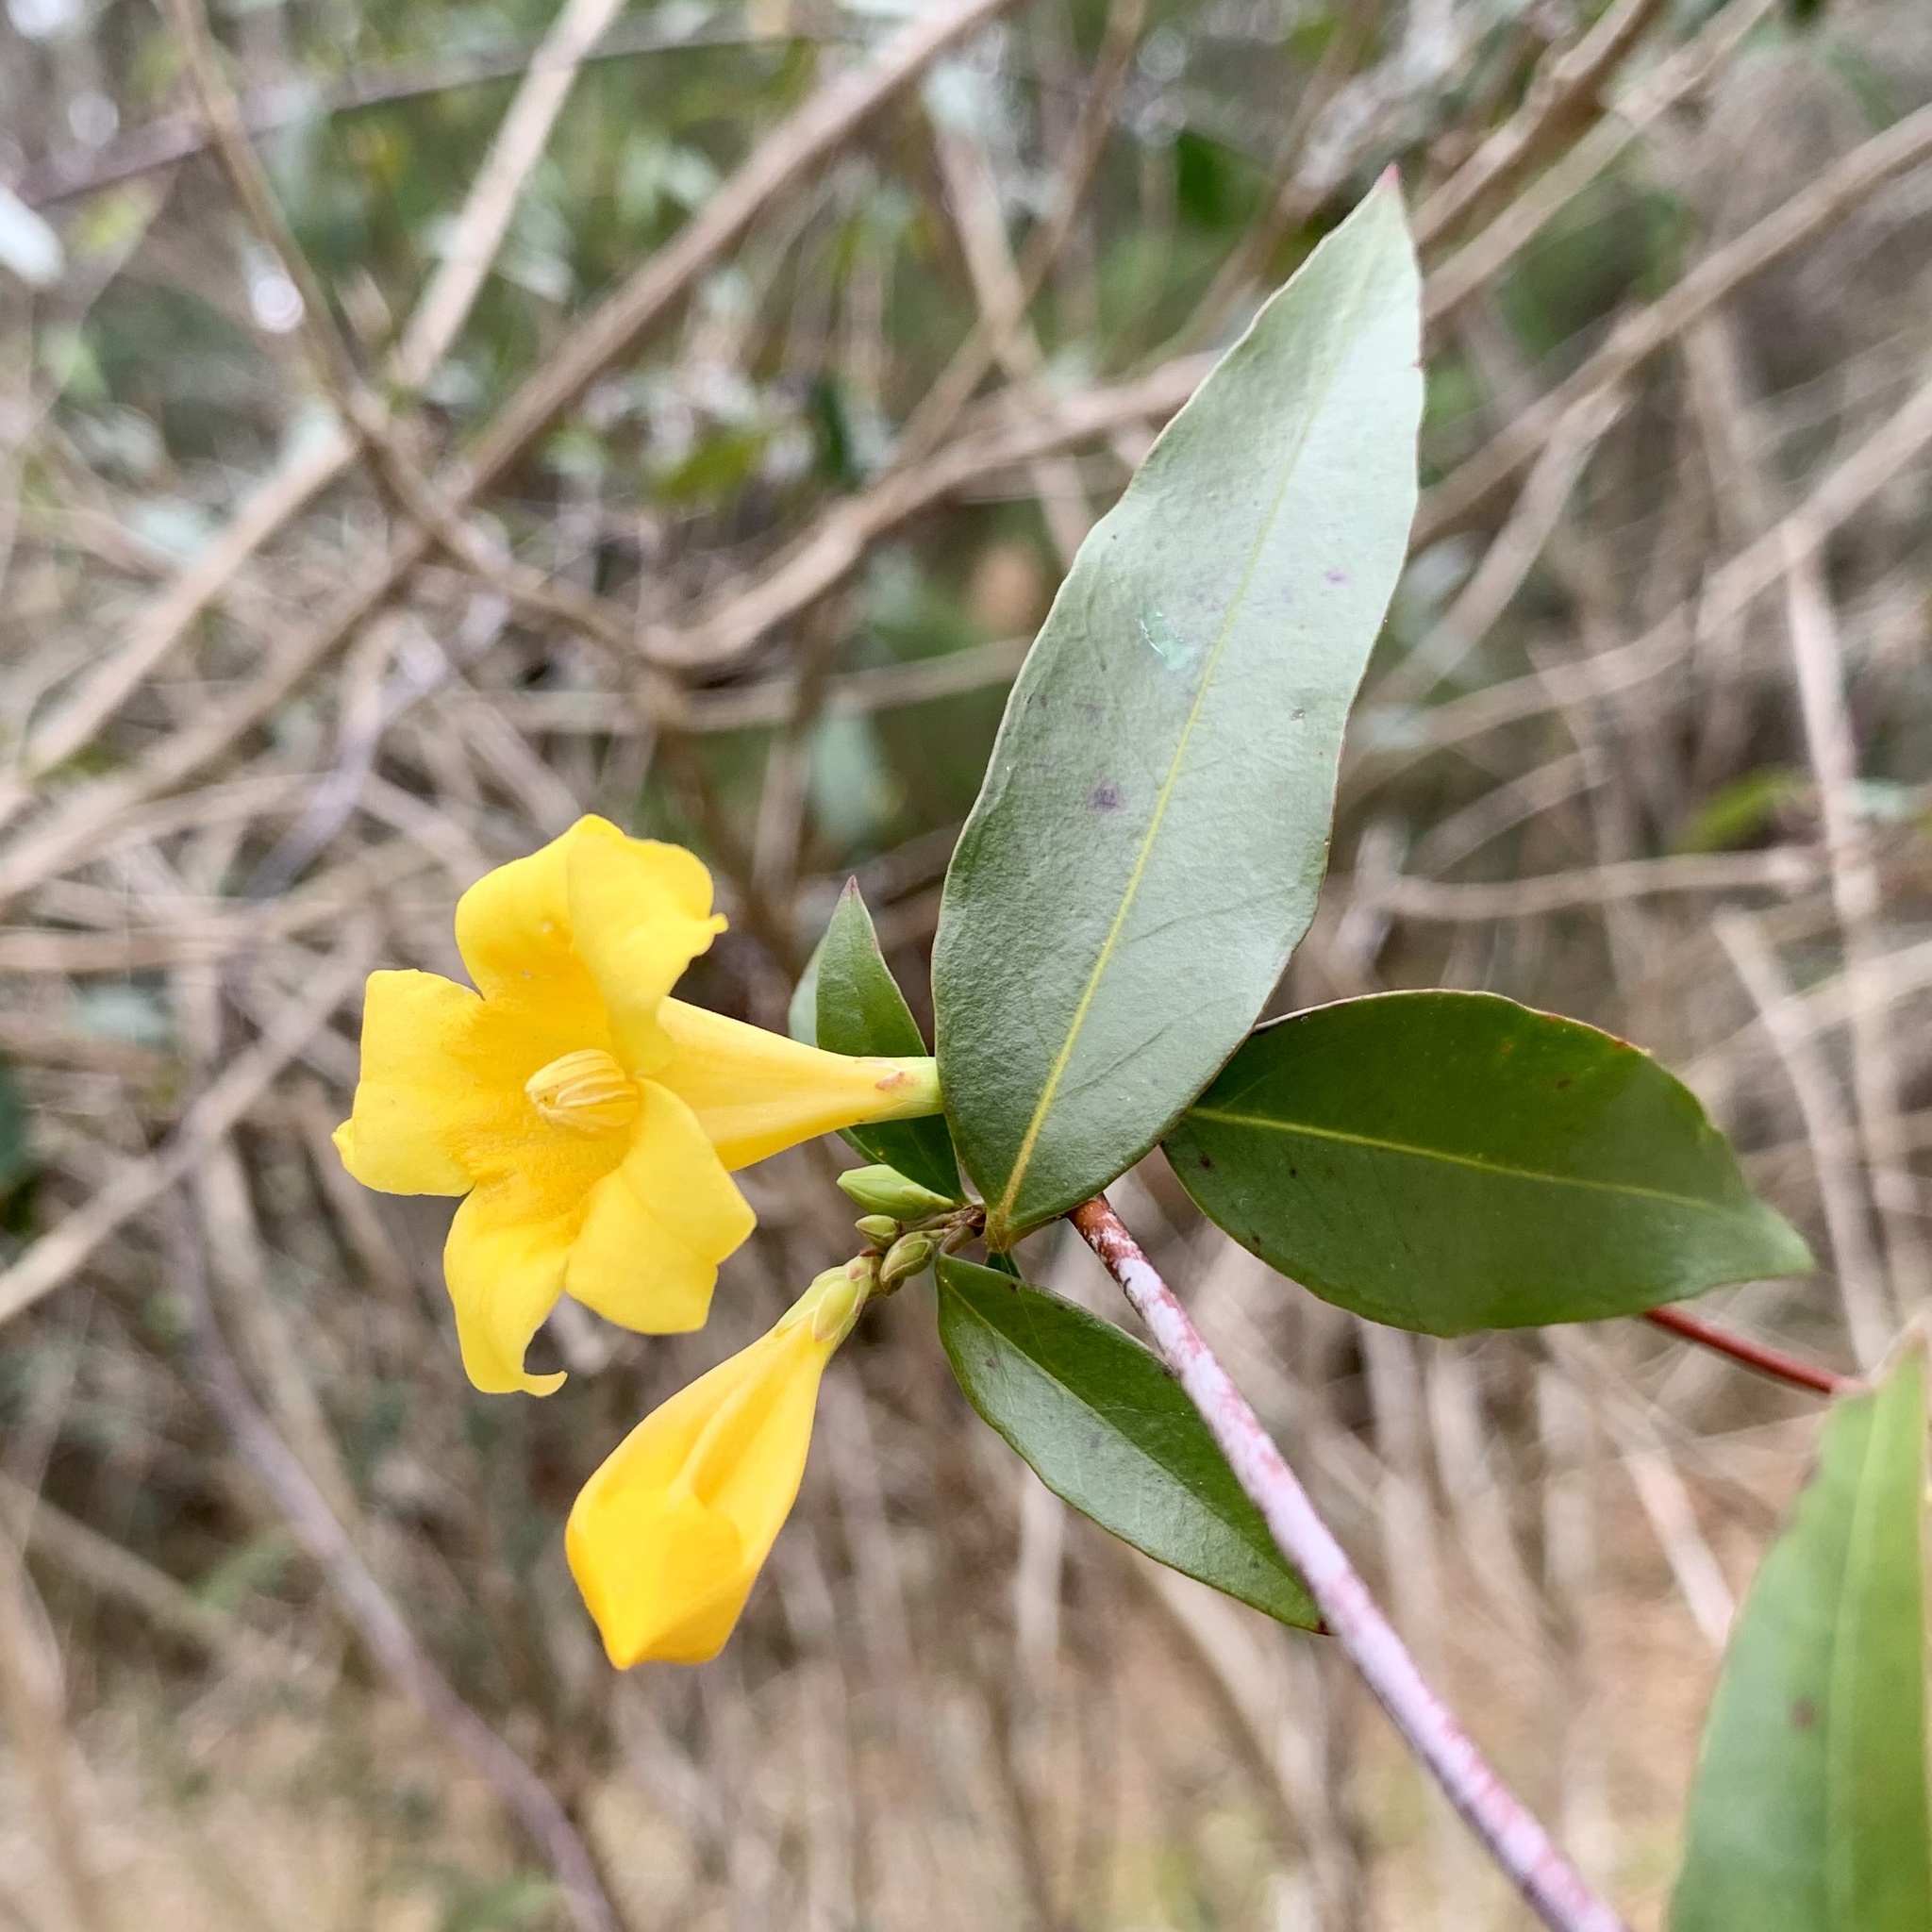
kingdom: Plantae
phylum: Tracheophyta
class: Magnoliopsida
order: Gentianales
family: Gelsemiaceae
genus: Gelsemium
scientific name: Gelsemium sempervirens
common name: Carolina-jasmine
